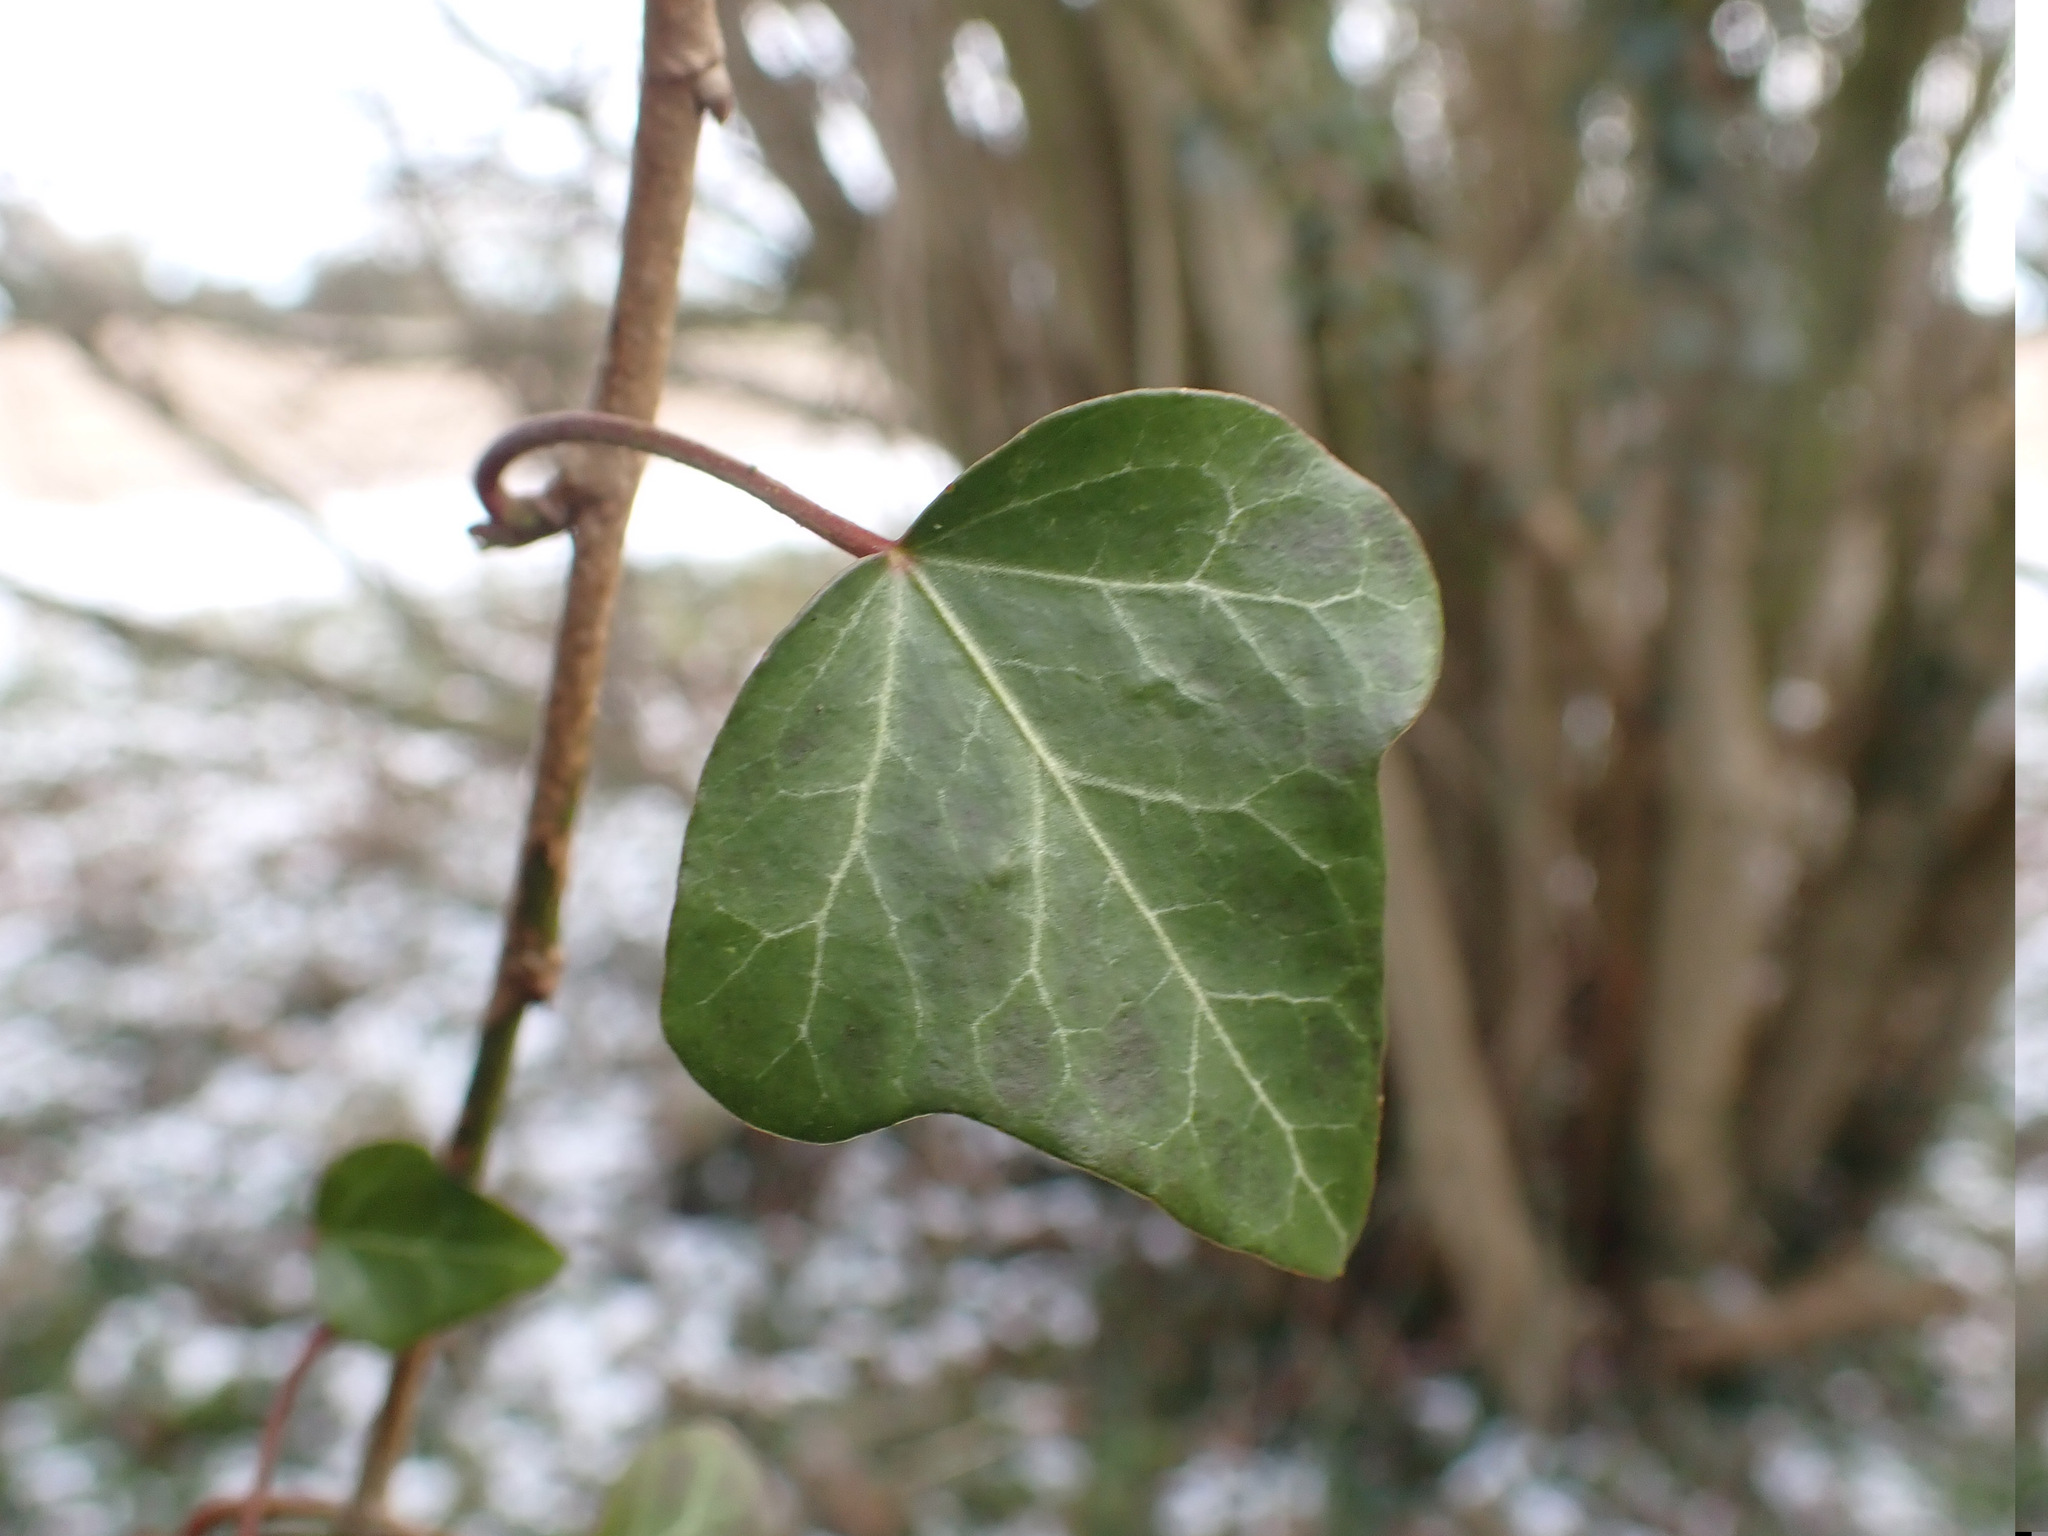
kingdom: Plantae
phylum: Tracheophyta
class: Magnoliopsida
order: Apiales
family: Araliaceae
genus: Hedera
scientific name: Hedera helix
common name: Ivy
